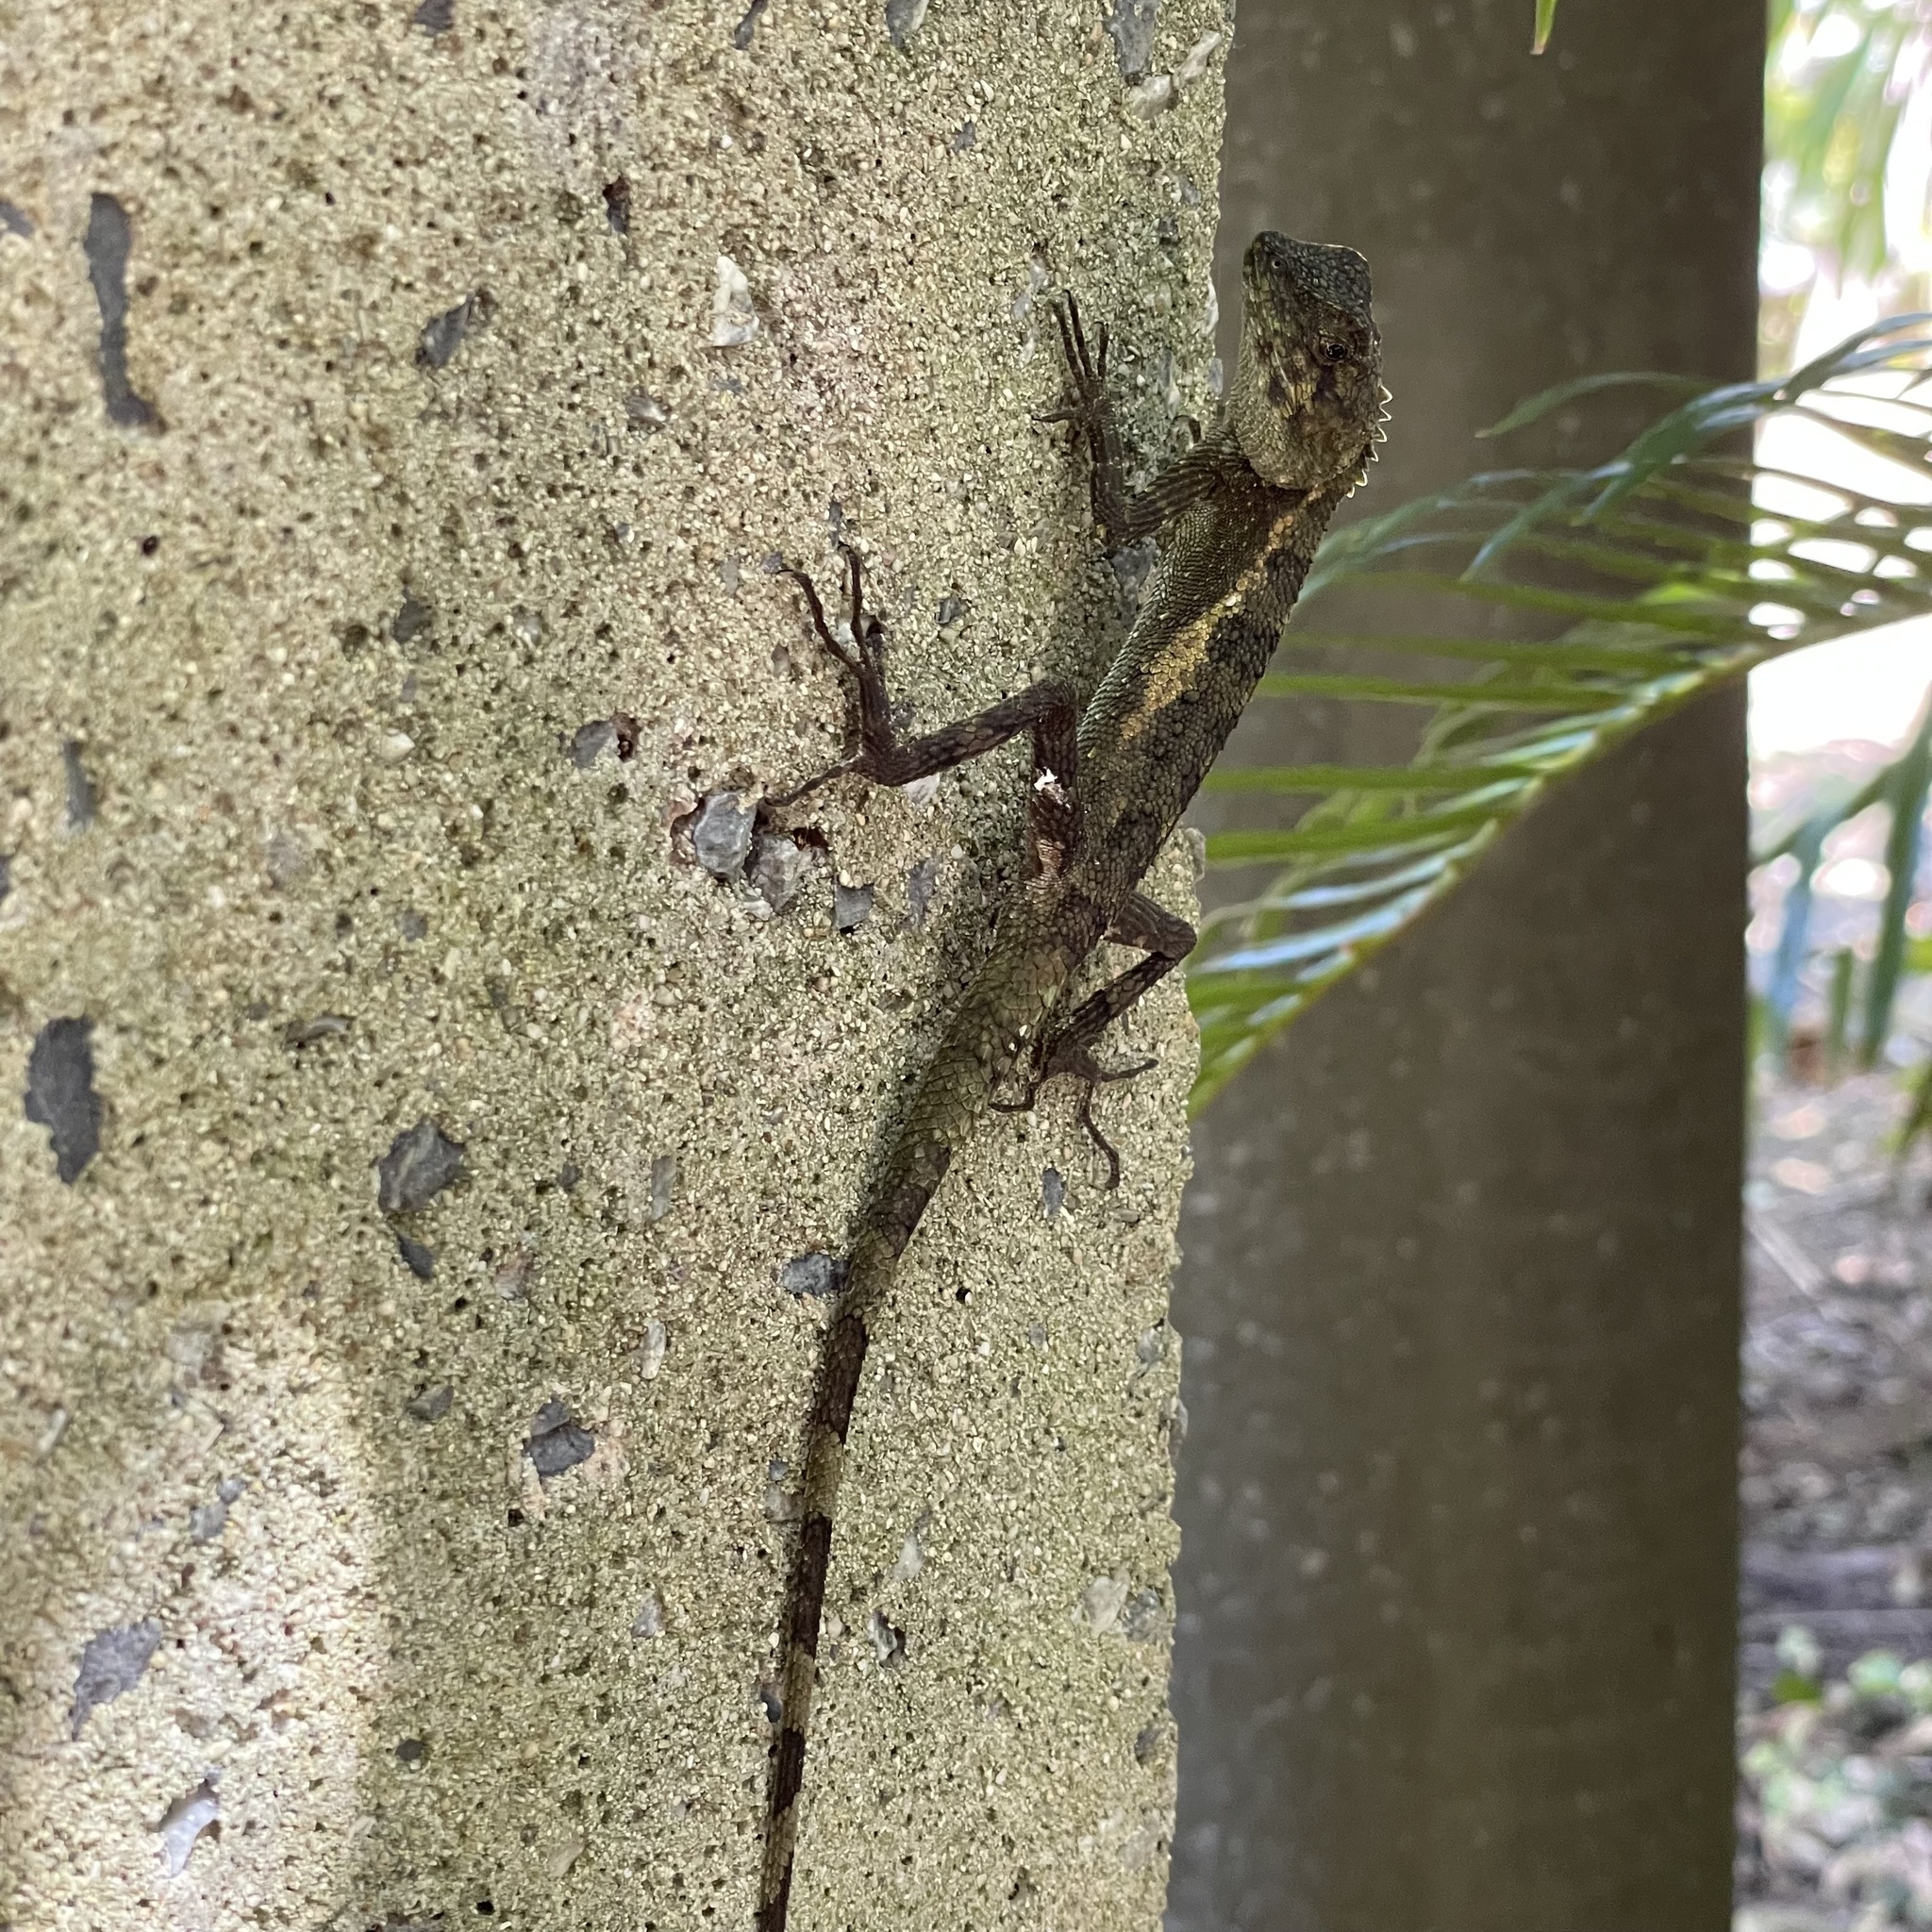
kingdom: Fungi
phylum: Basidiomycota
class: Agaricomycetes
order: Boletales
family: Diplocystidiaceae
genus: Diploderma
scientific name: Diploderma polygonatum
